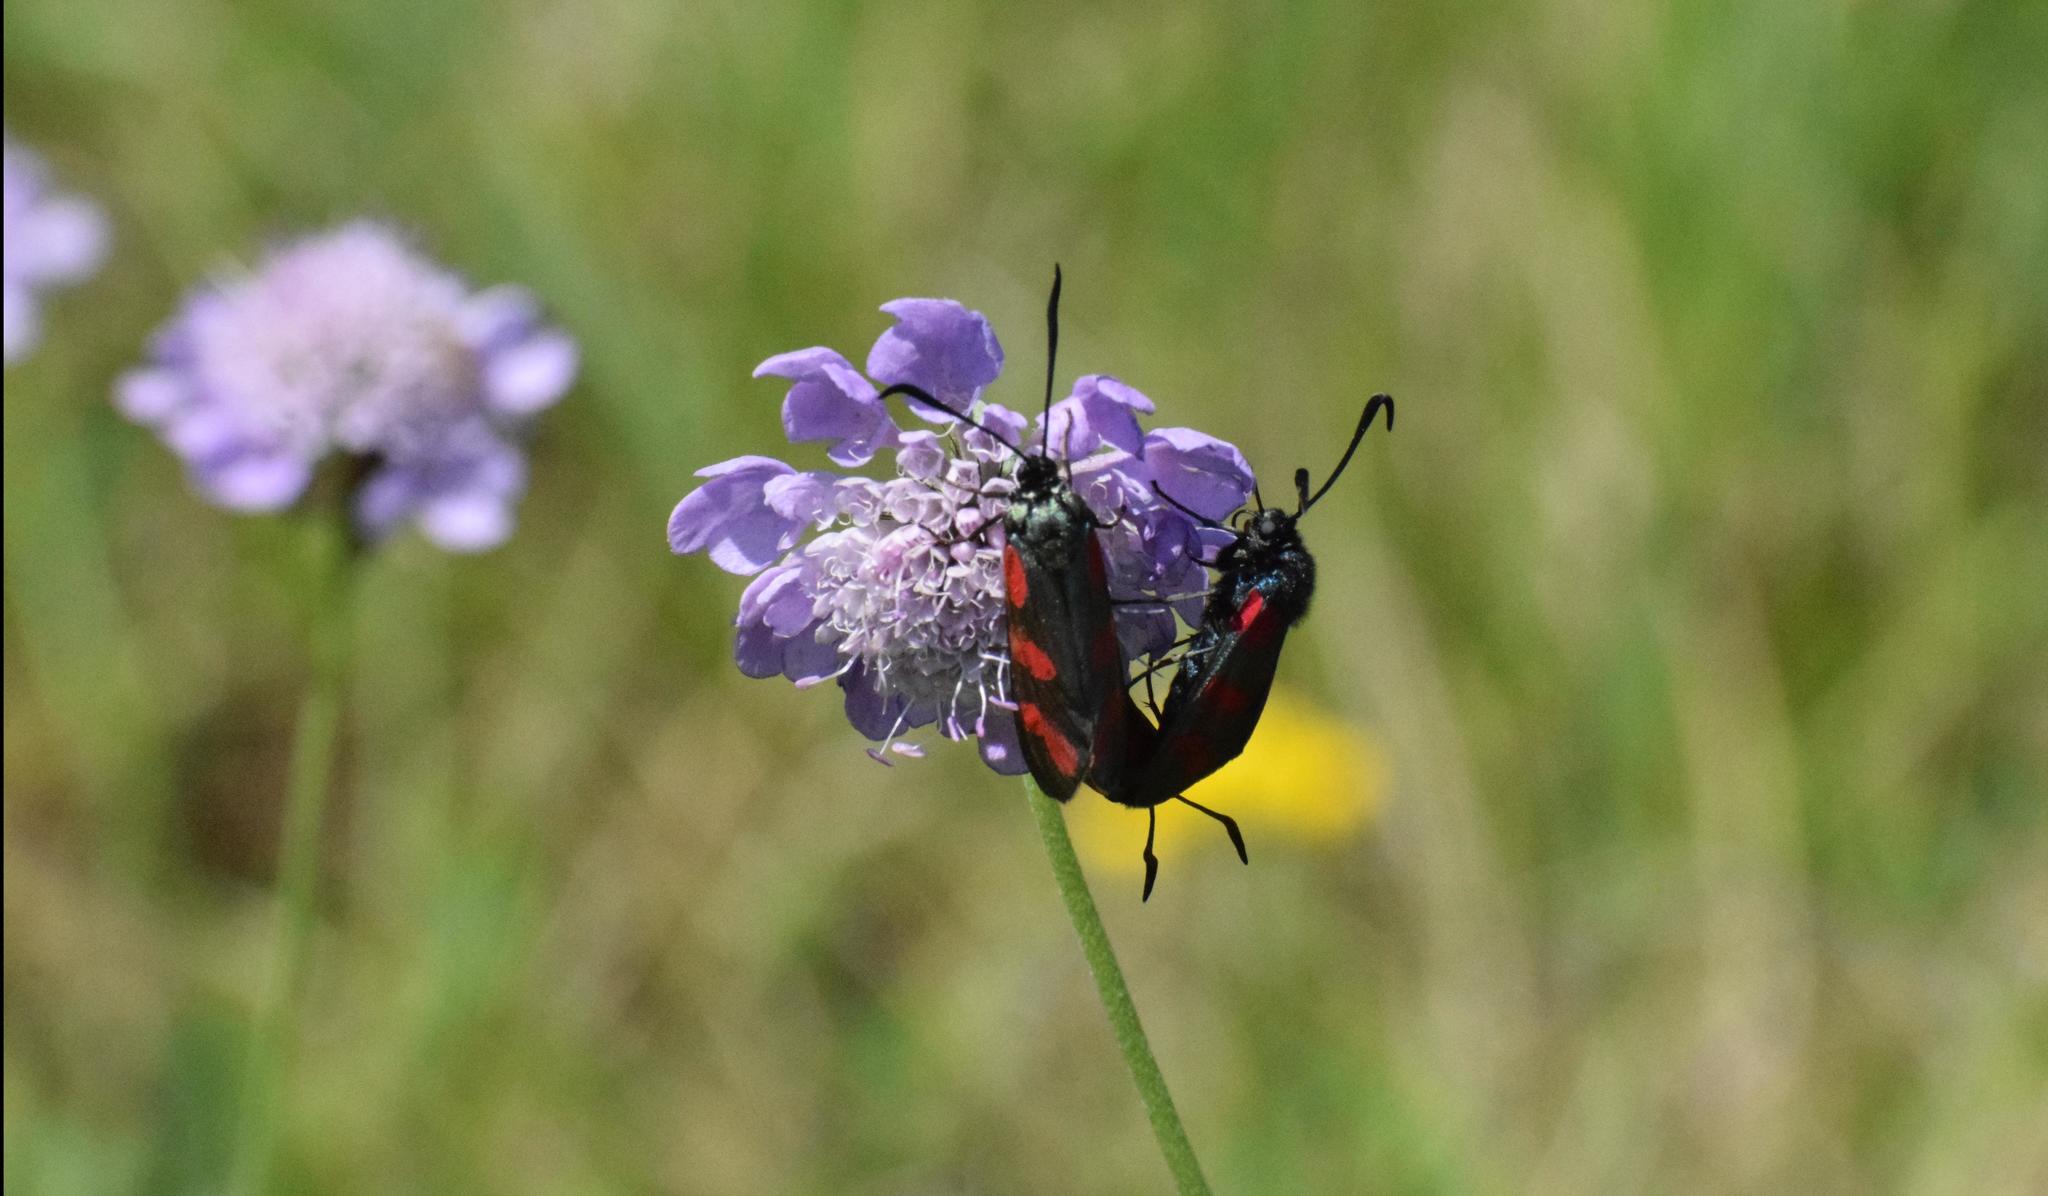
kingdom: Animalia
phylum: Arthropoda
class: Insecta
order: Lepidoptera
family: Zygaenidae
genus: Zygaena
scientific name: Zygaena filipendulae
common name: Six-spot burnet
